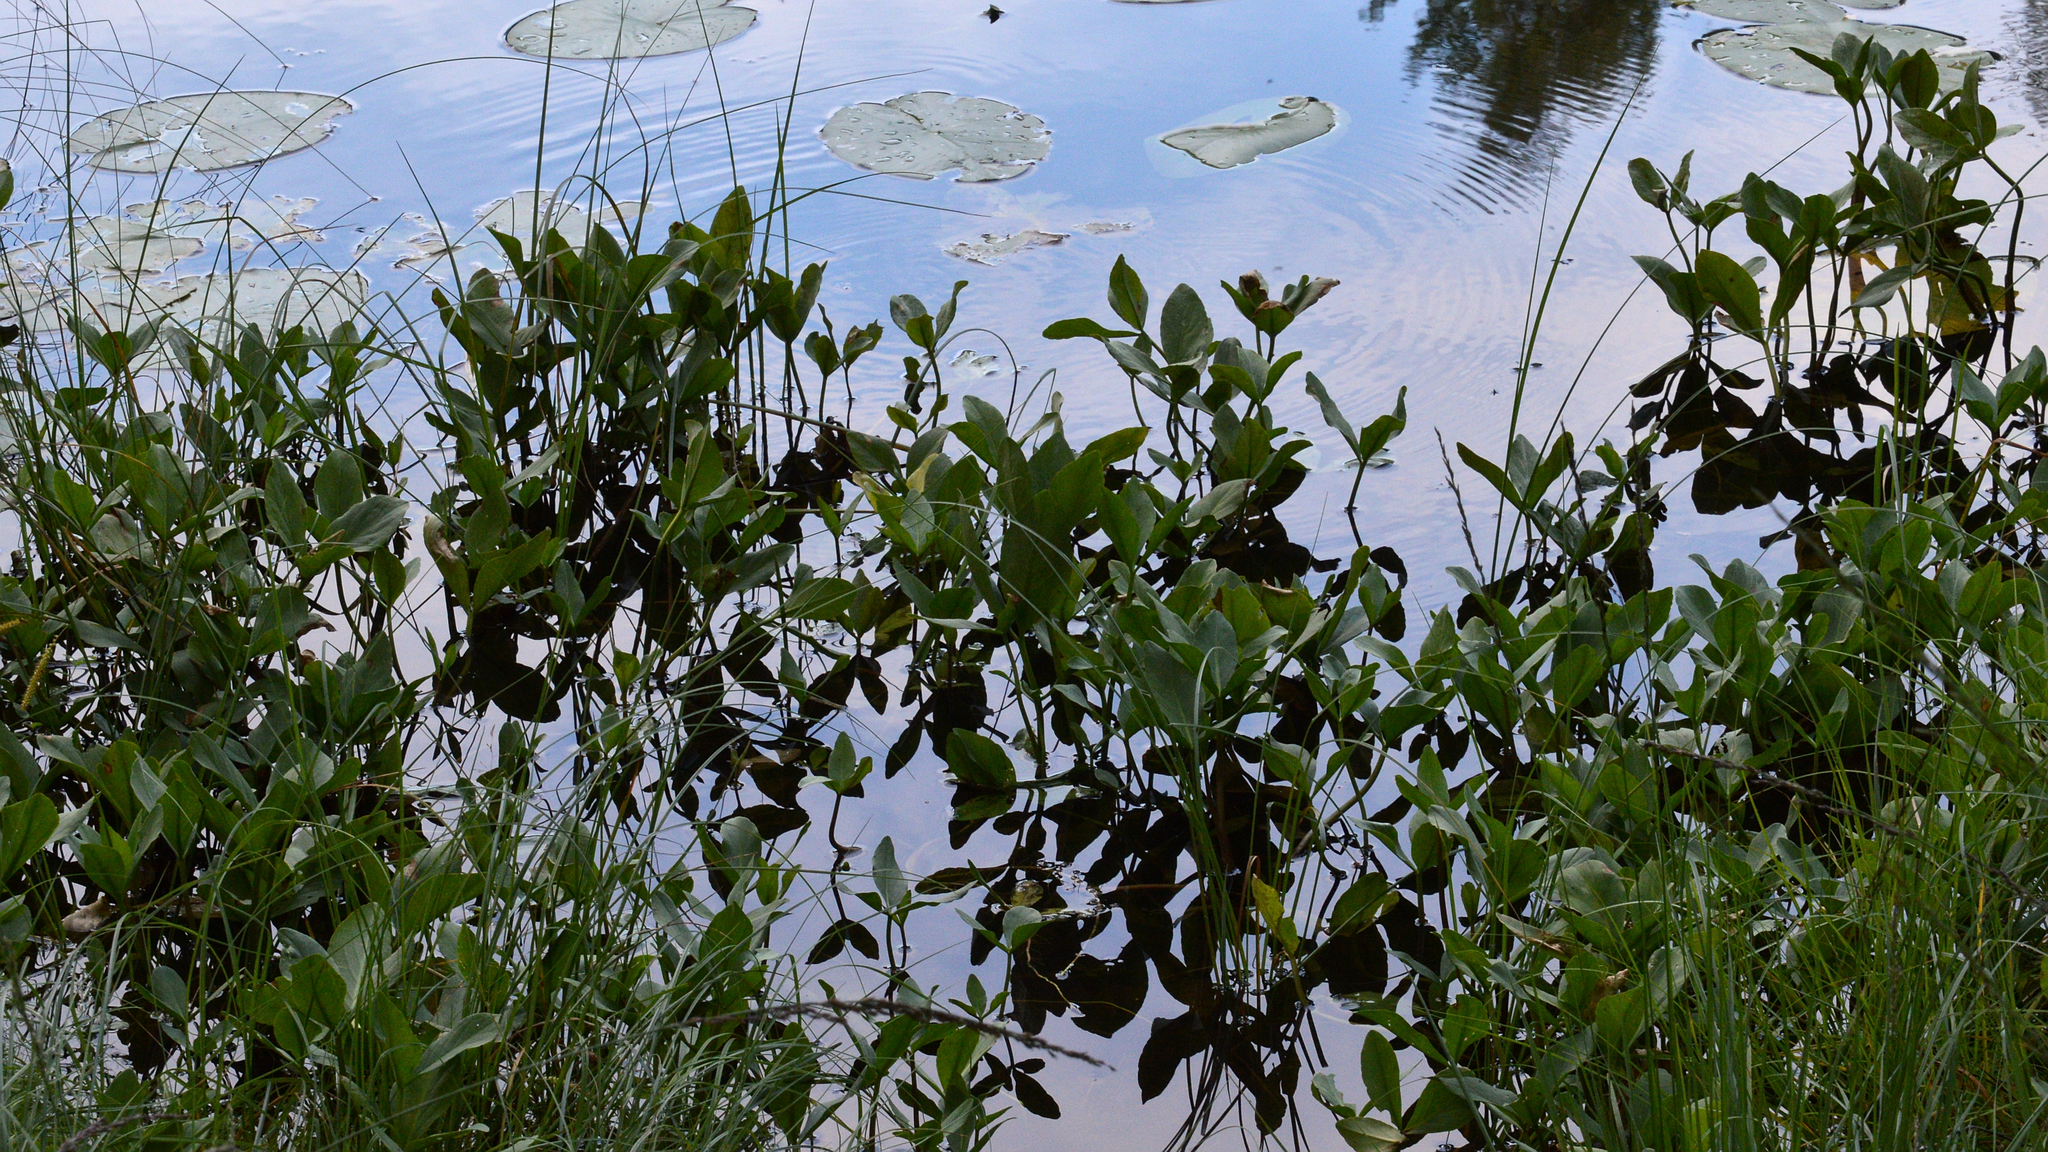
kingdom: Plantae
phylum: Tracheophyta
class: Magnoliopsida
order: Asterales
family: Menyanthaceae
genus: Menyanthes
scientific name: Menyanthes trifoliata
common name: Bogbean
